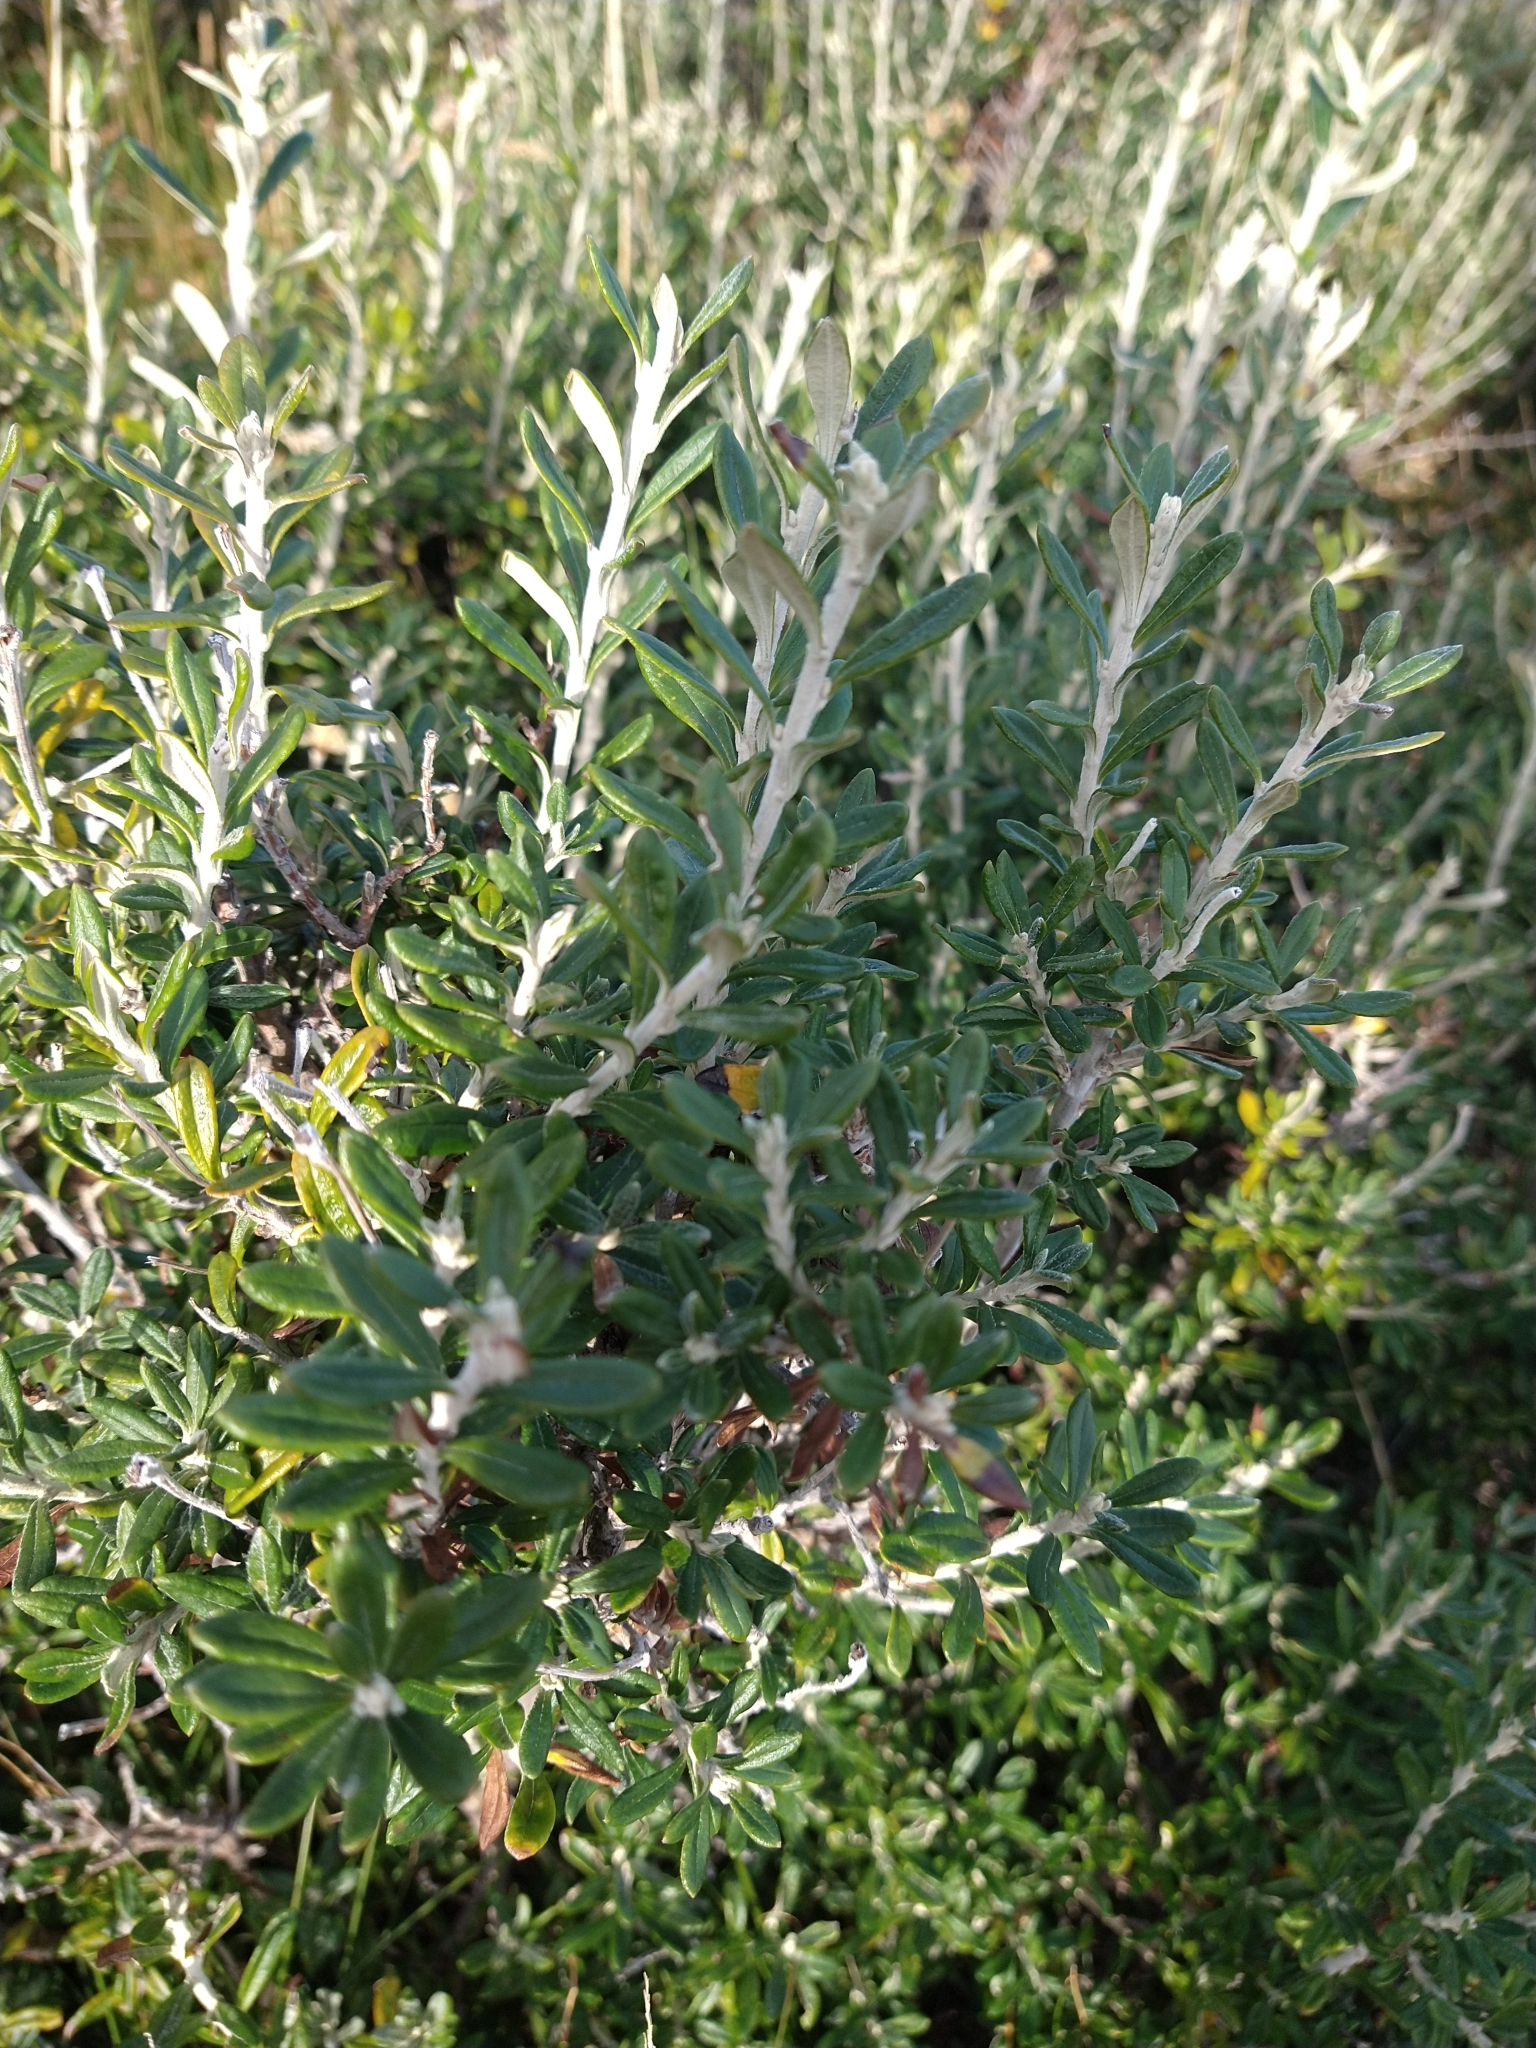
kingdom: Plantae
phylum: Tracheophyta
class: Magnoliopsida
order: Asterales
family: Asteraceae
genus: Chiliotrichum
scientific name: Chiliotrichum diffusum
